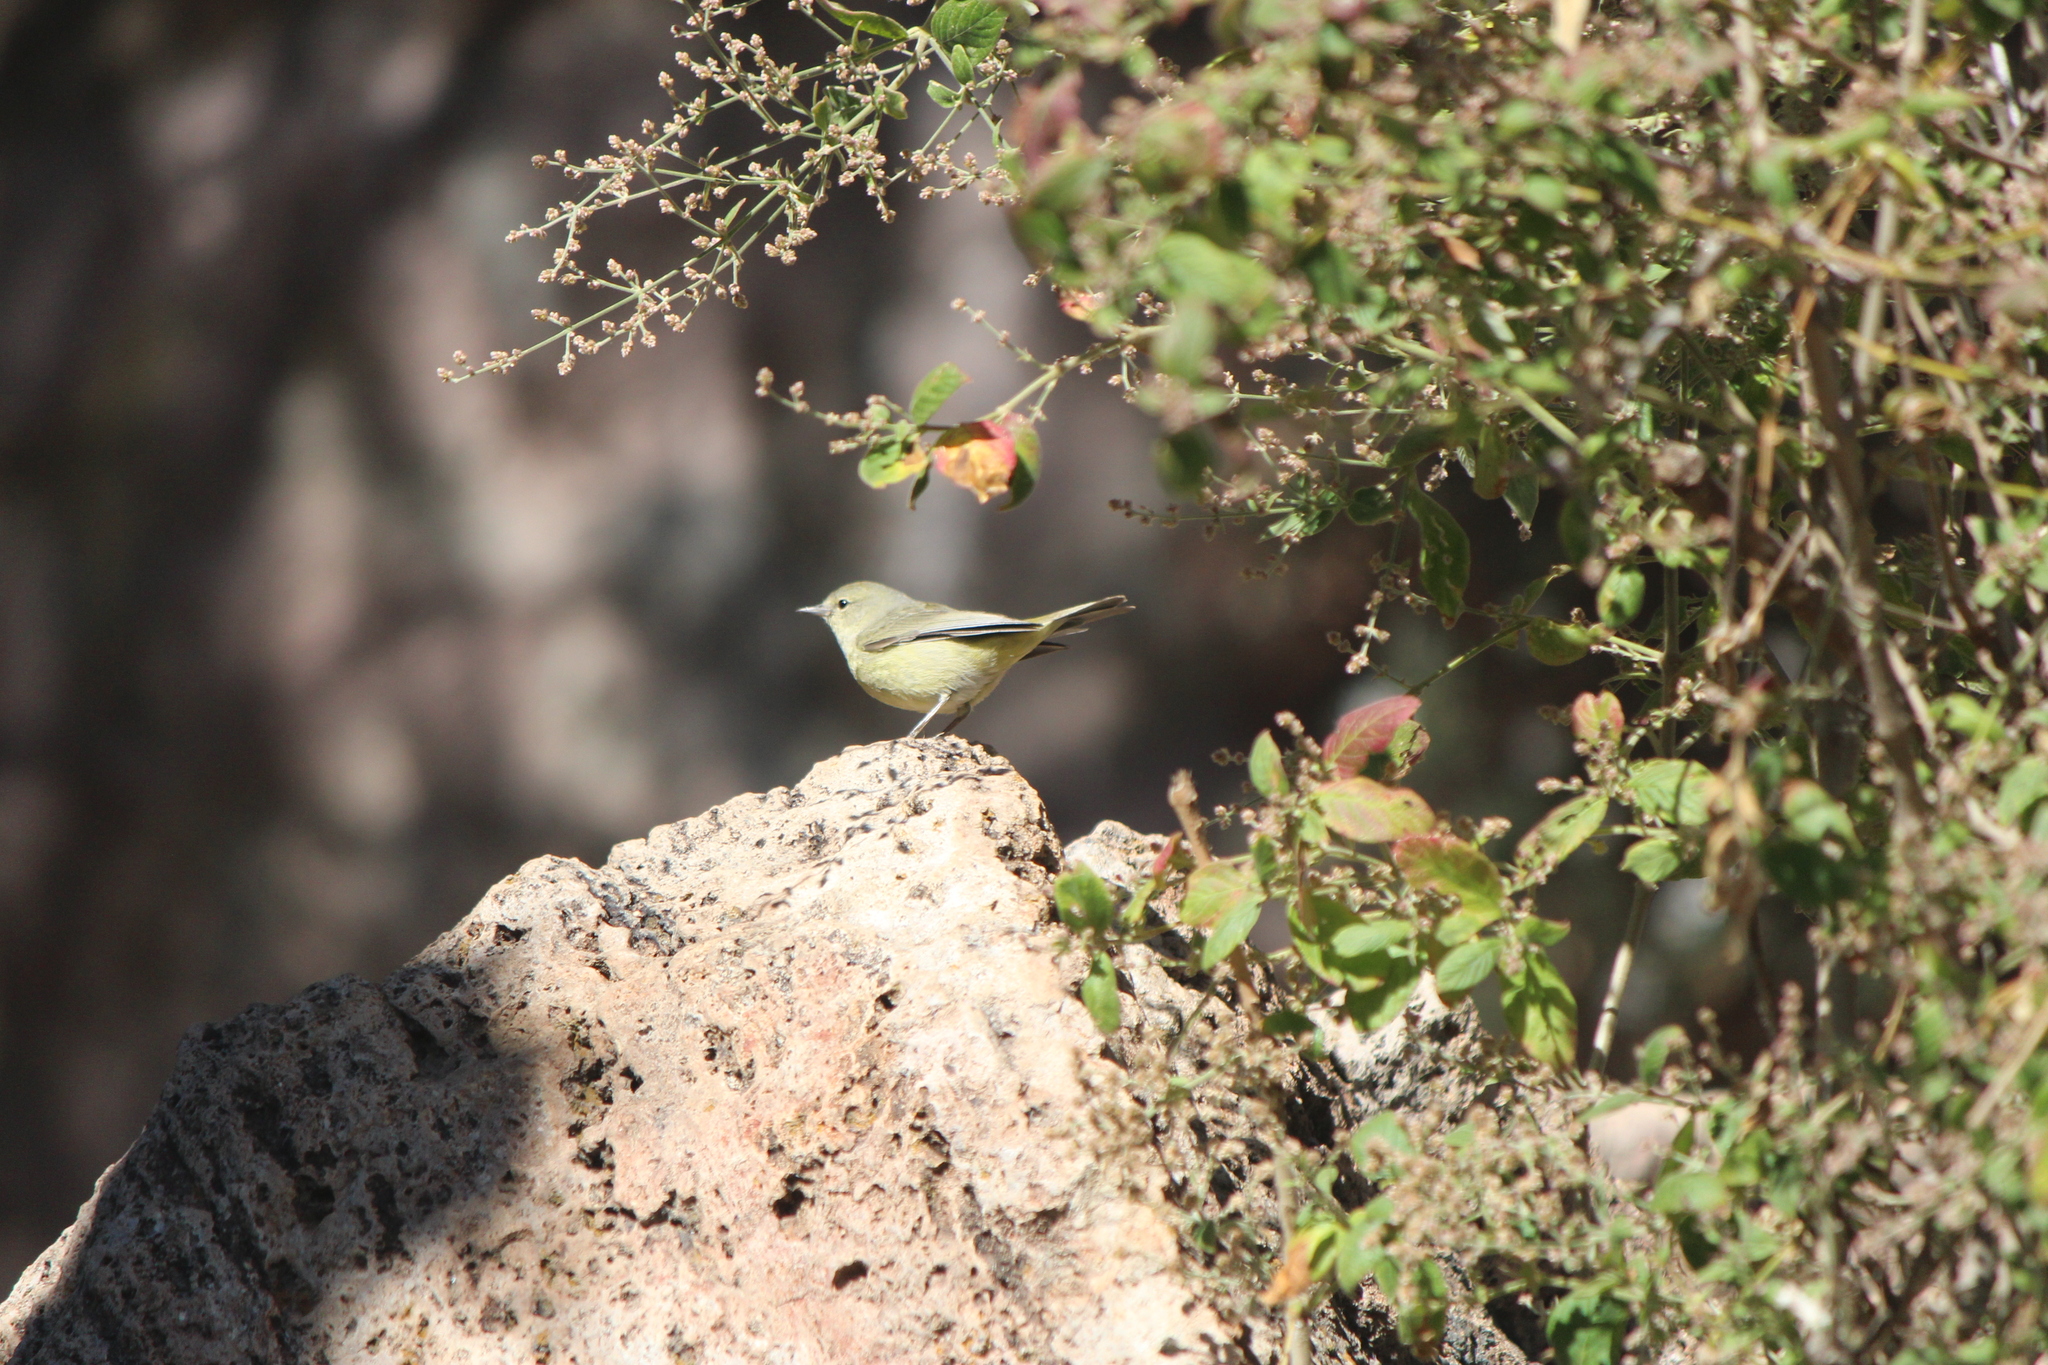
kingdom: Animalia
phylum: Chordata
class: Aves
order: Passeriformes
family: Parulidae
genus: Leiothlypis
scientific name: Leiothlypis celata
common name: Orange-crowned warbler
